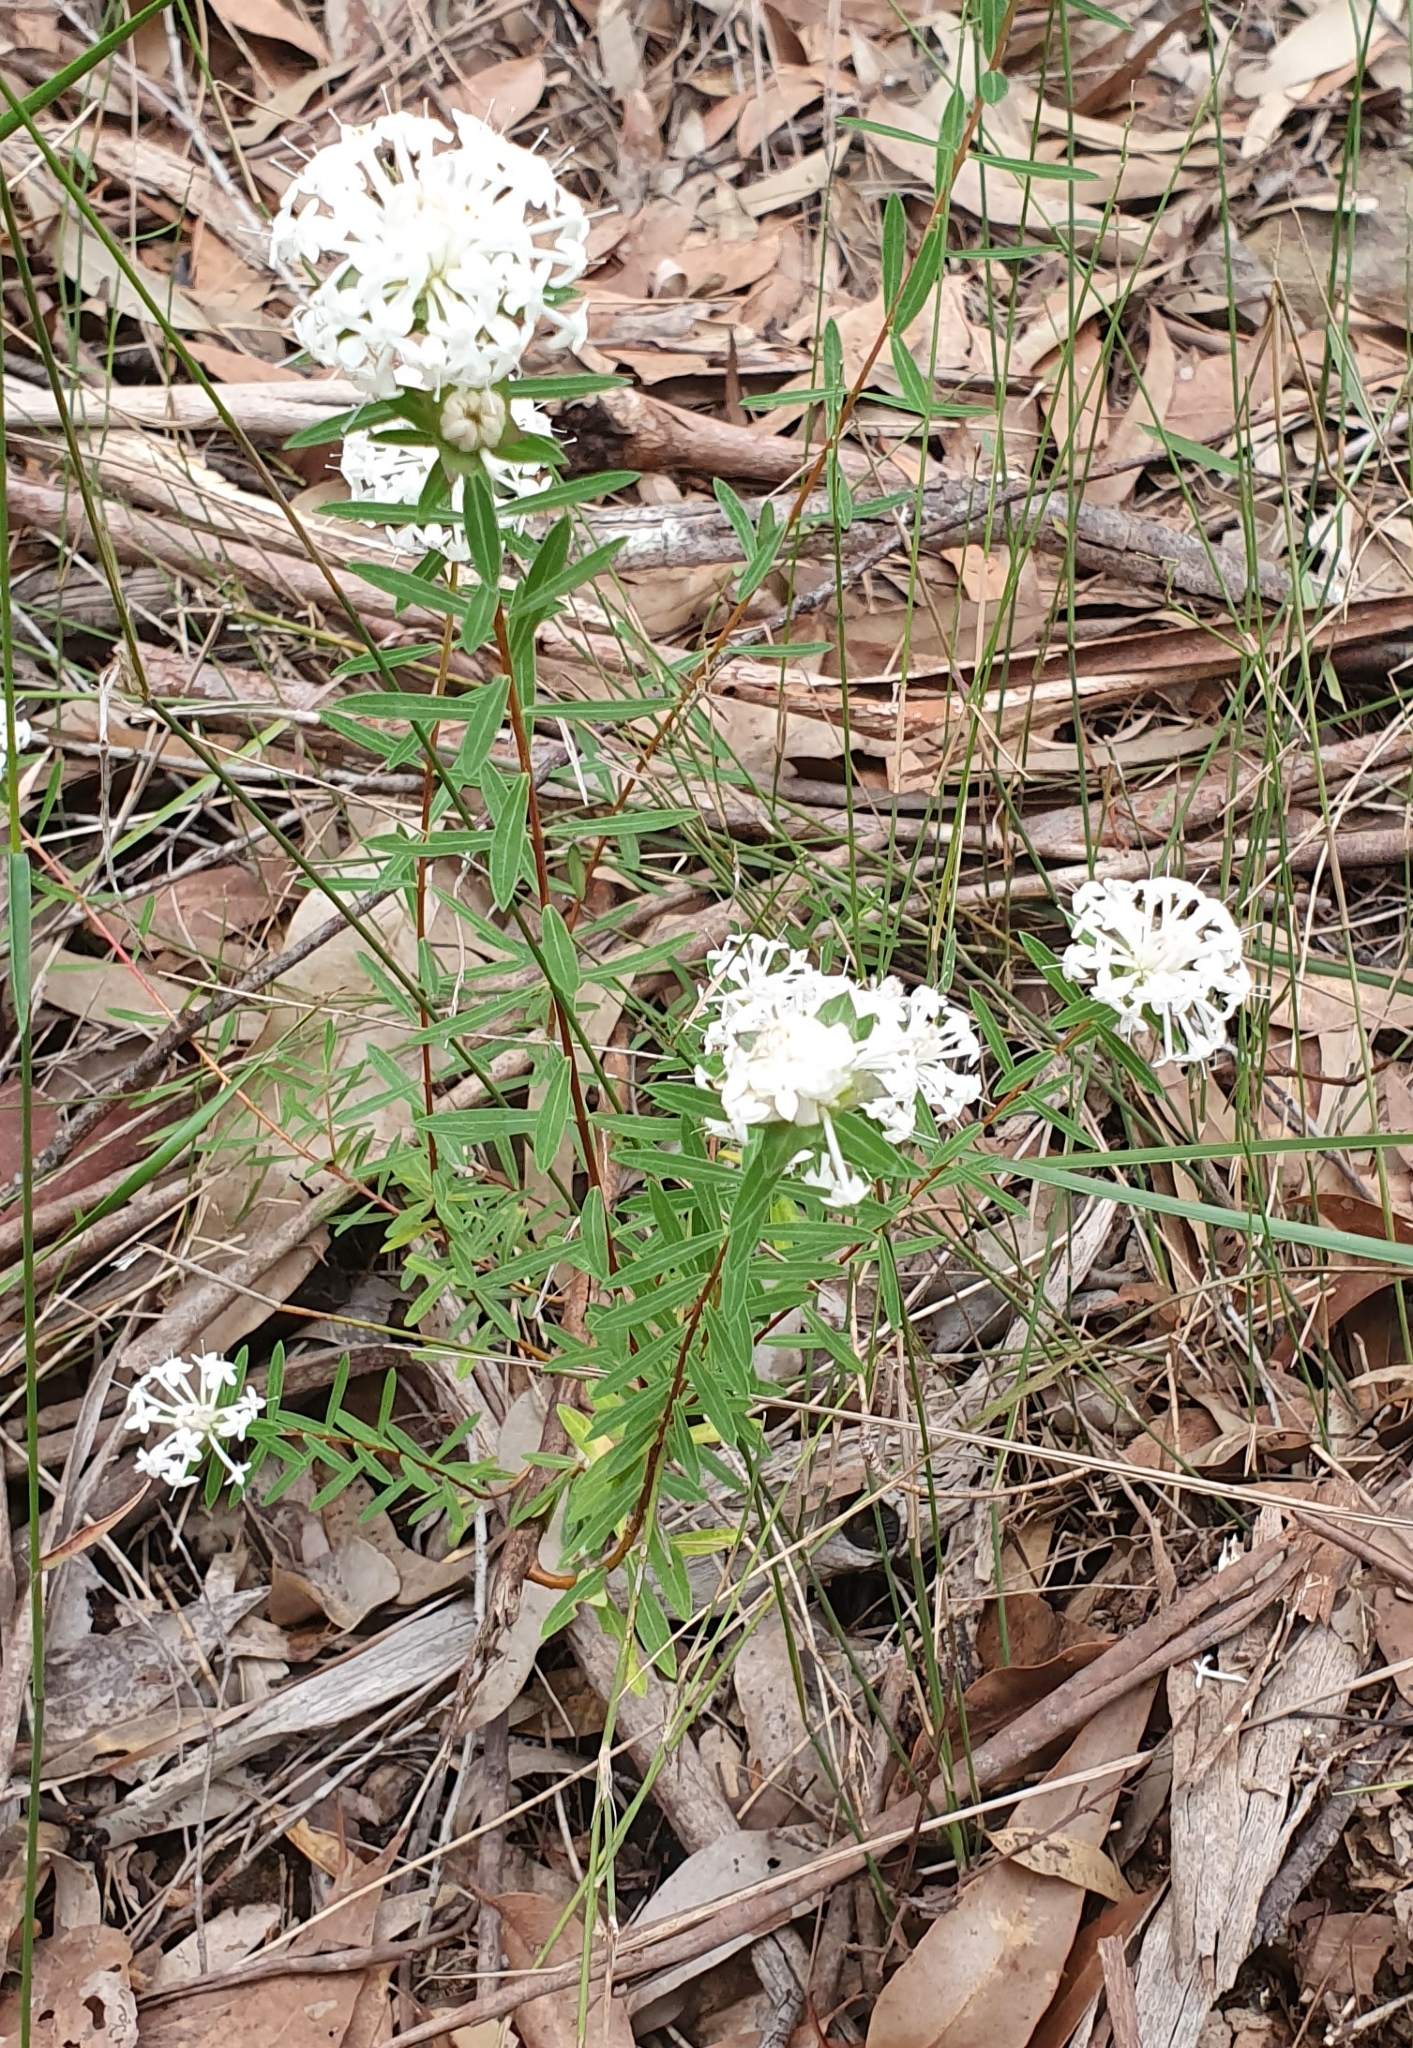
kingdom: Plantae
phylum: Tracheophyta
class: Magnoliopsida
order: Malvales
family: Thymelaeaceae
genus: Pimelea
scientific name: Pimelea linifolia
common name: Queen-of-the-bush
